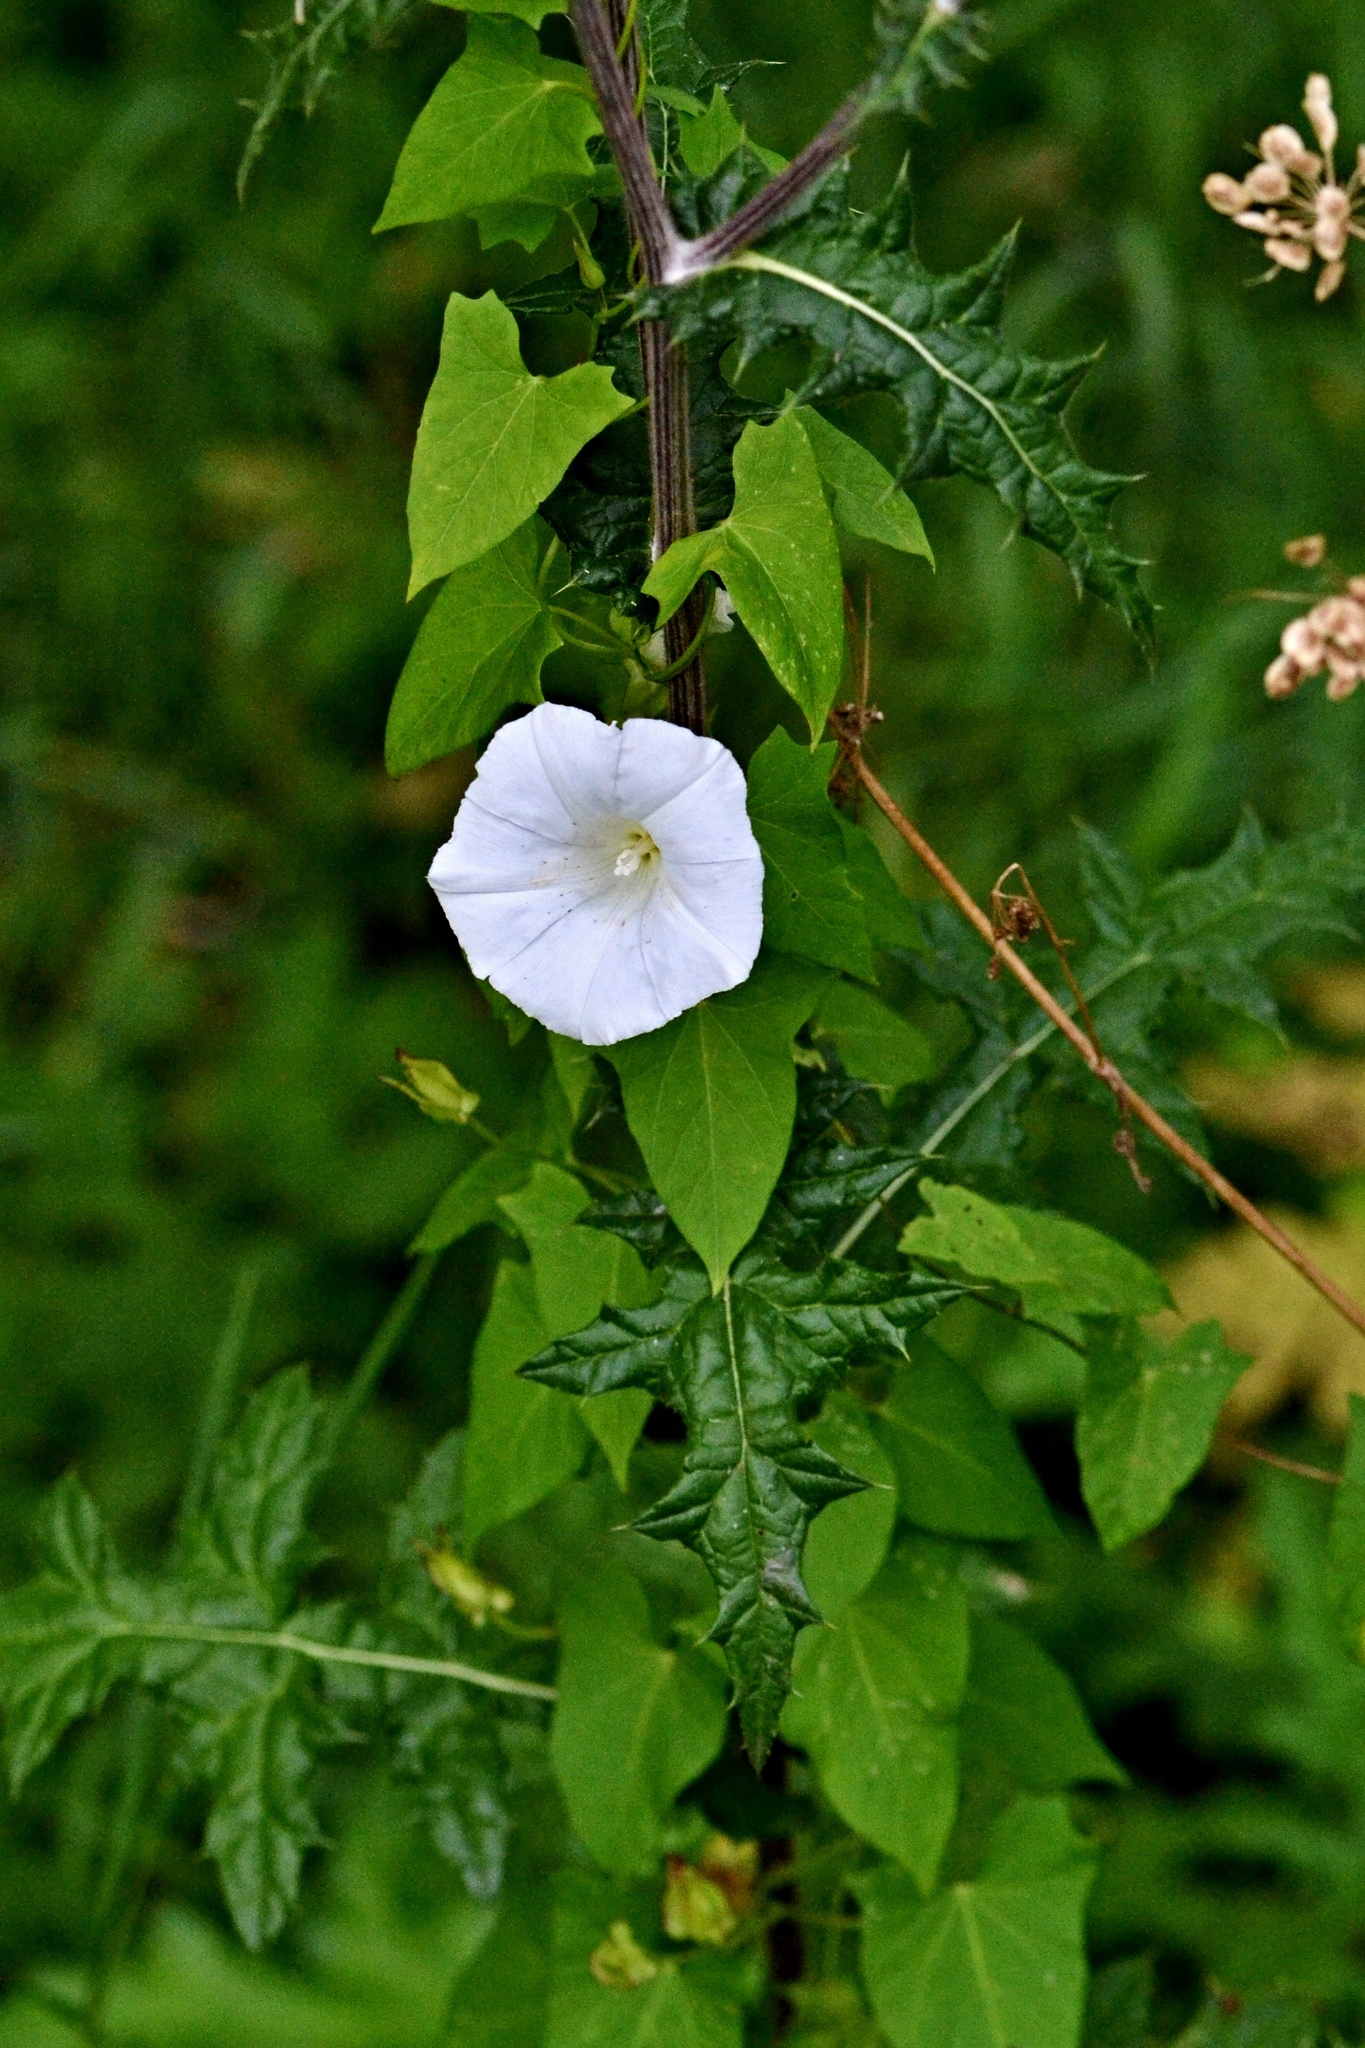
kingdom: Plantae
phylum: Tracheophyta
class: Magnoliopsida
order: Solanales
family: Convolvulaceae
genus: Calystegia
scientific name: Calystegia sepium
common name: Hedge bindweed
